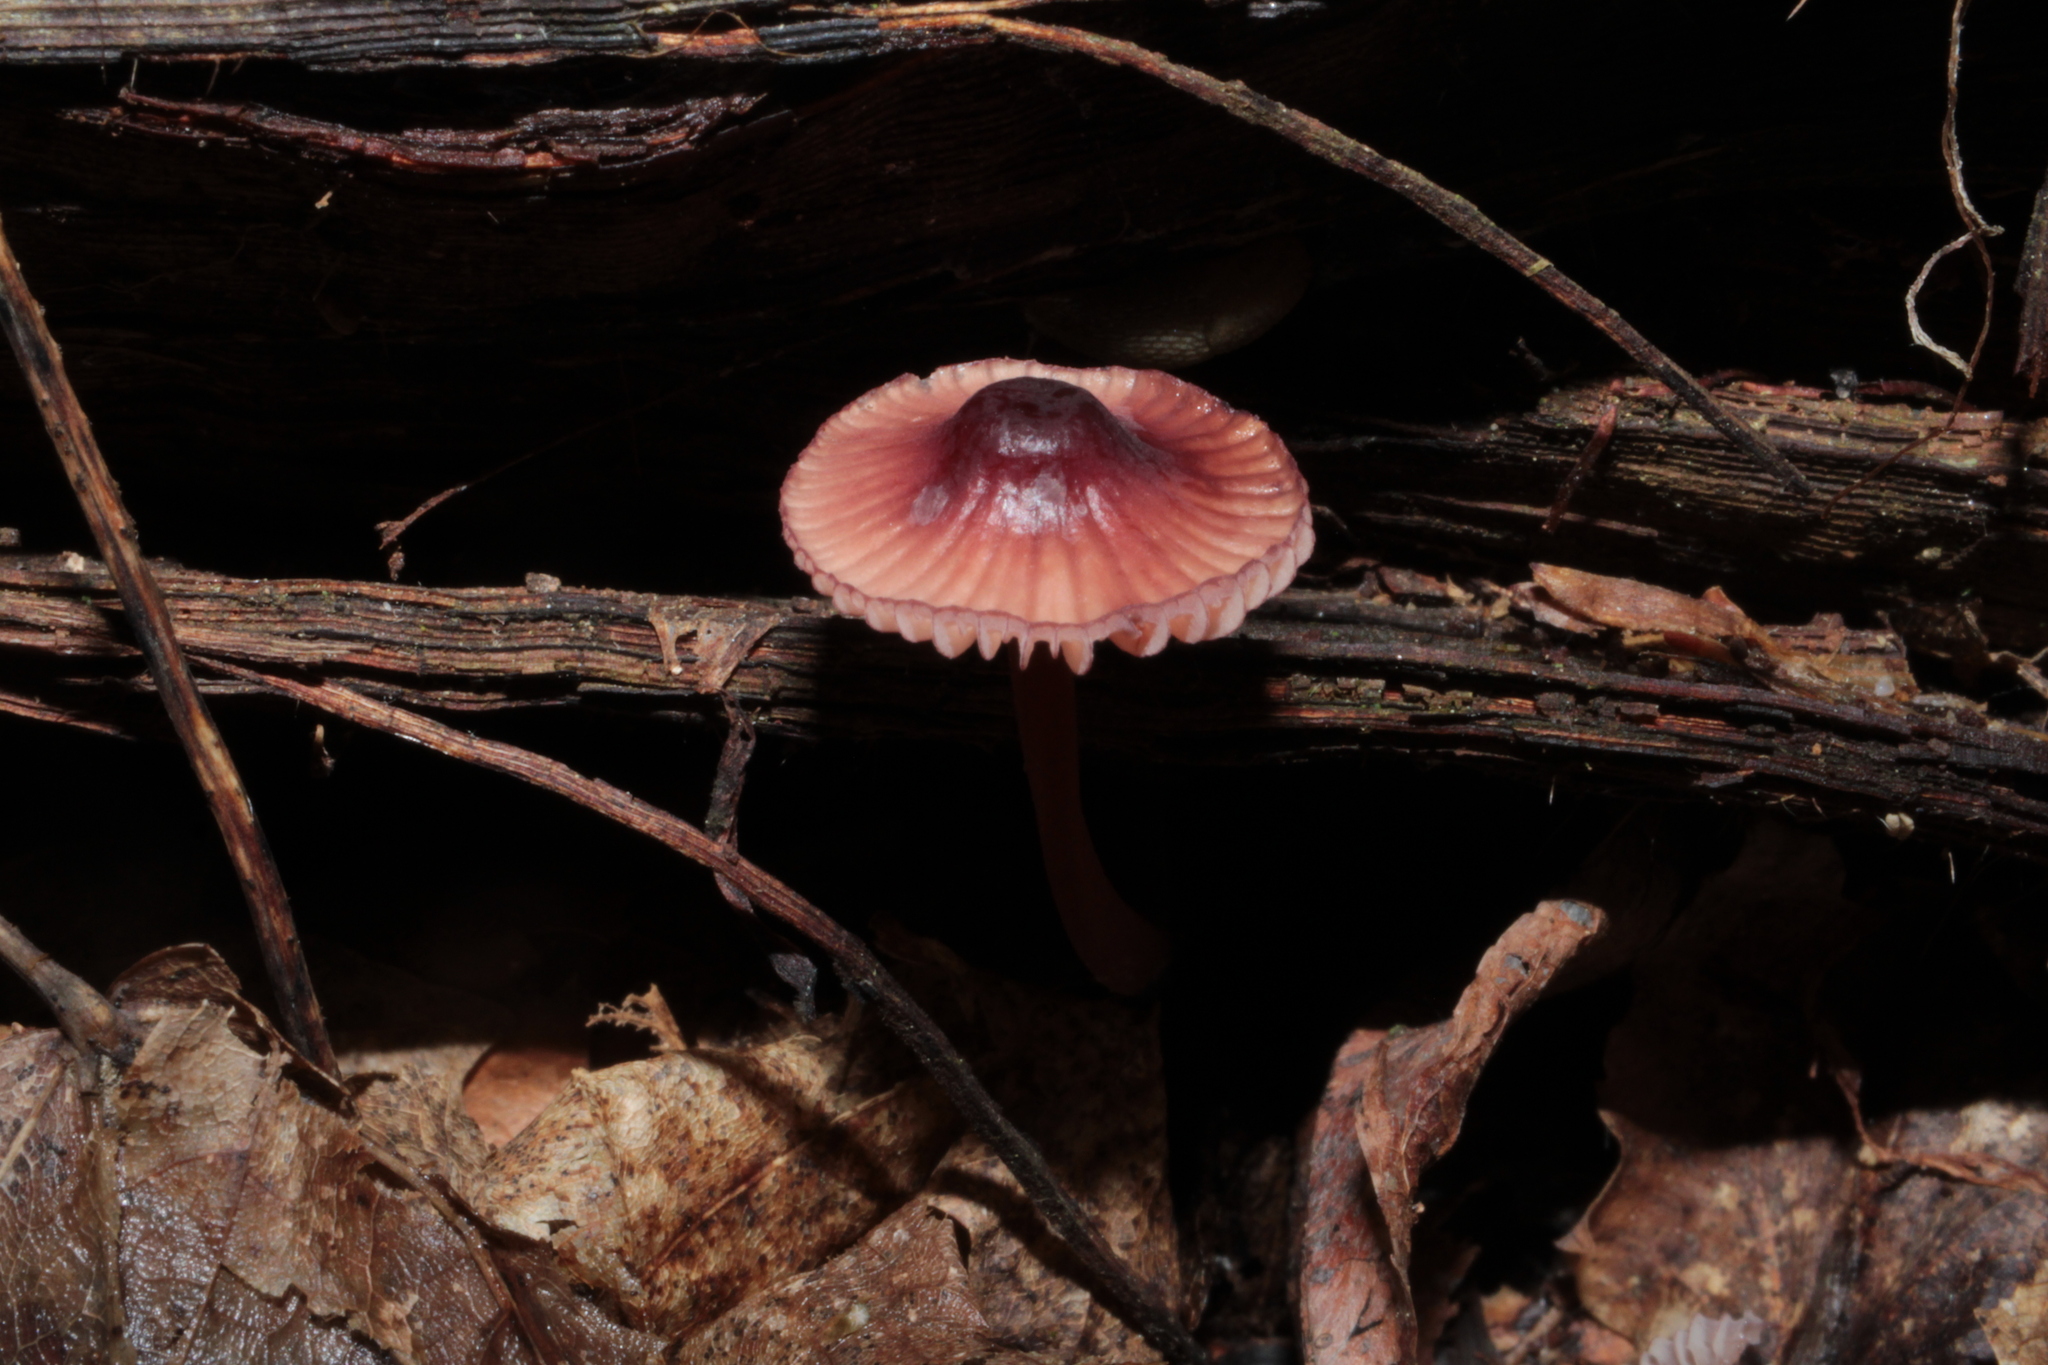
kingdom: Fungi
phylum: Basidiomycota
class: Agaricomycetes
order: Agaricales
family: Mycenaceae
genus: Mycena
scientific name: Mycena sanguinolenta
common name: Bleeding bonnet
